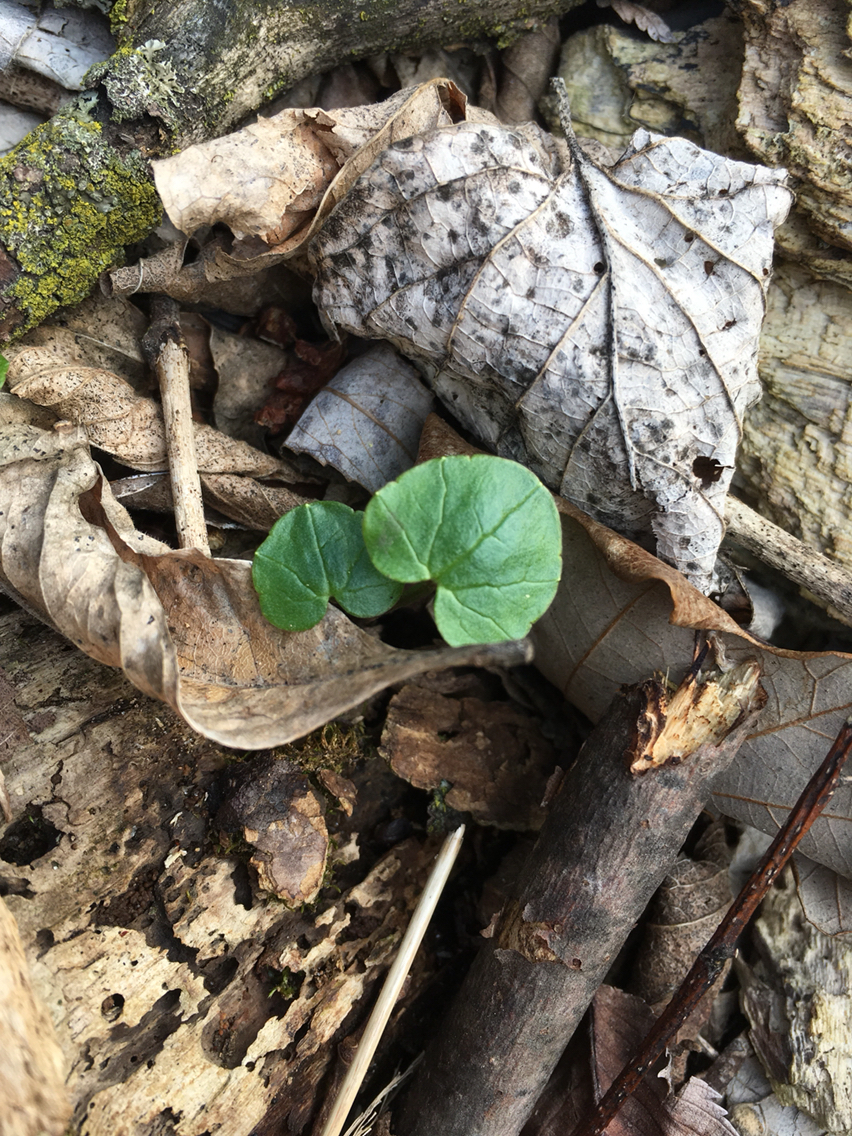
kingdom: Plantae
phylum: Tracheophyta
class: Magnoliopsida
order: Ranunculales
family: Ranunculaceae
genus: Ficaria
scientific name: Ficaria verna
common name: Lesser celandine
